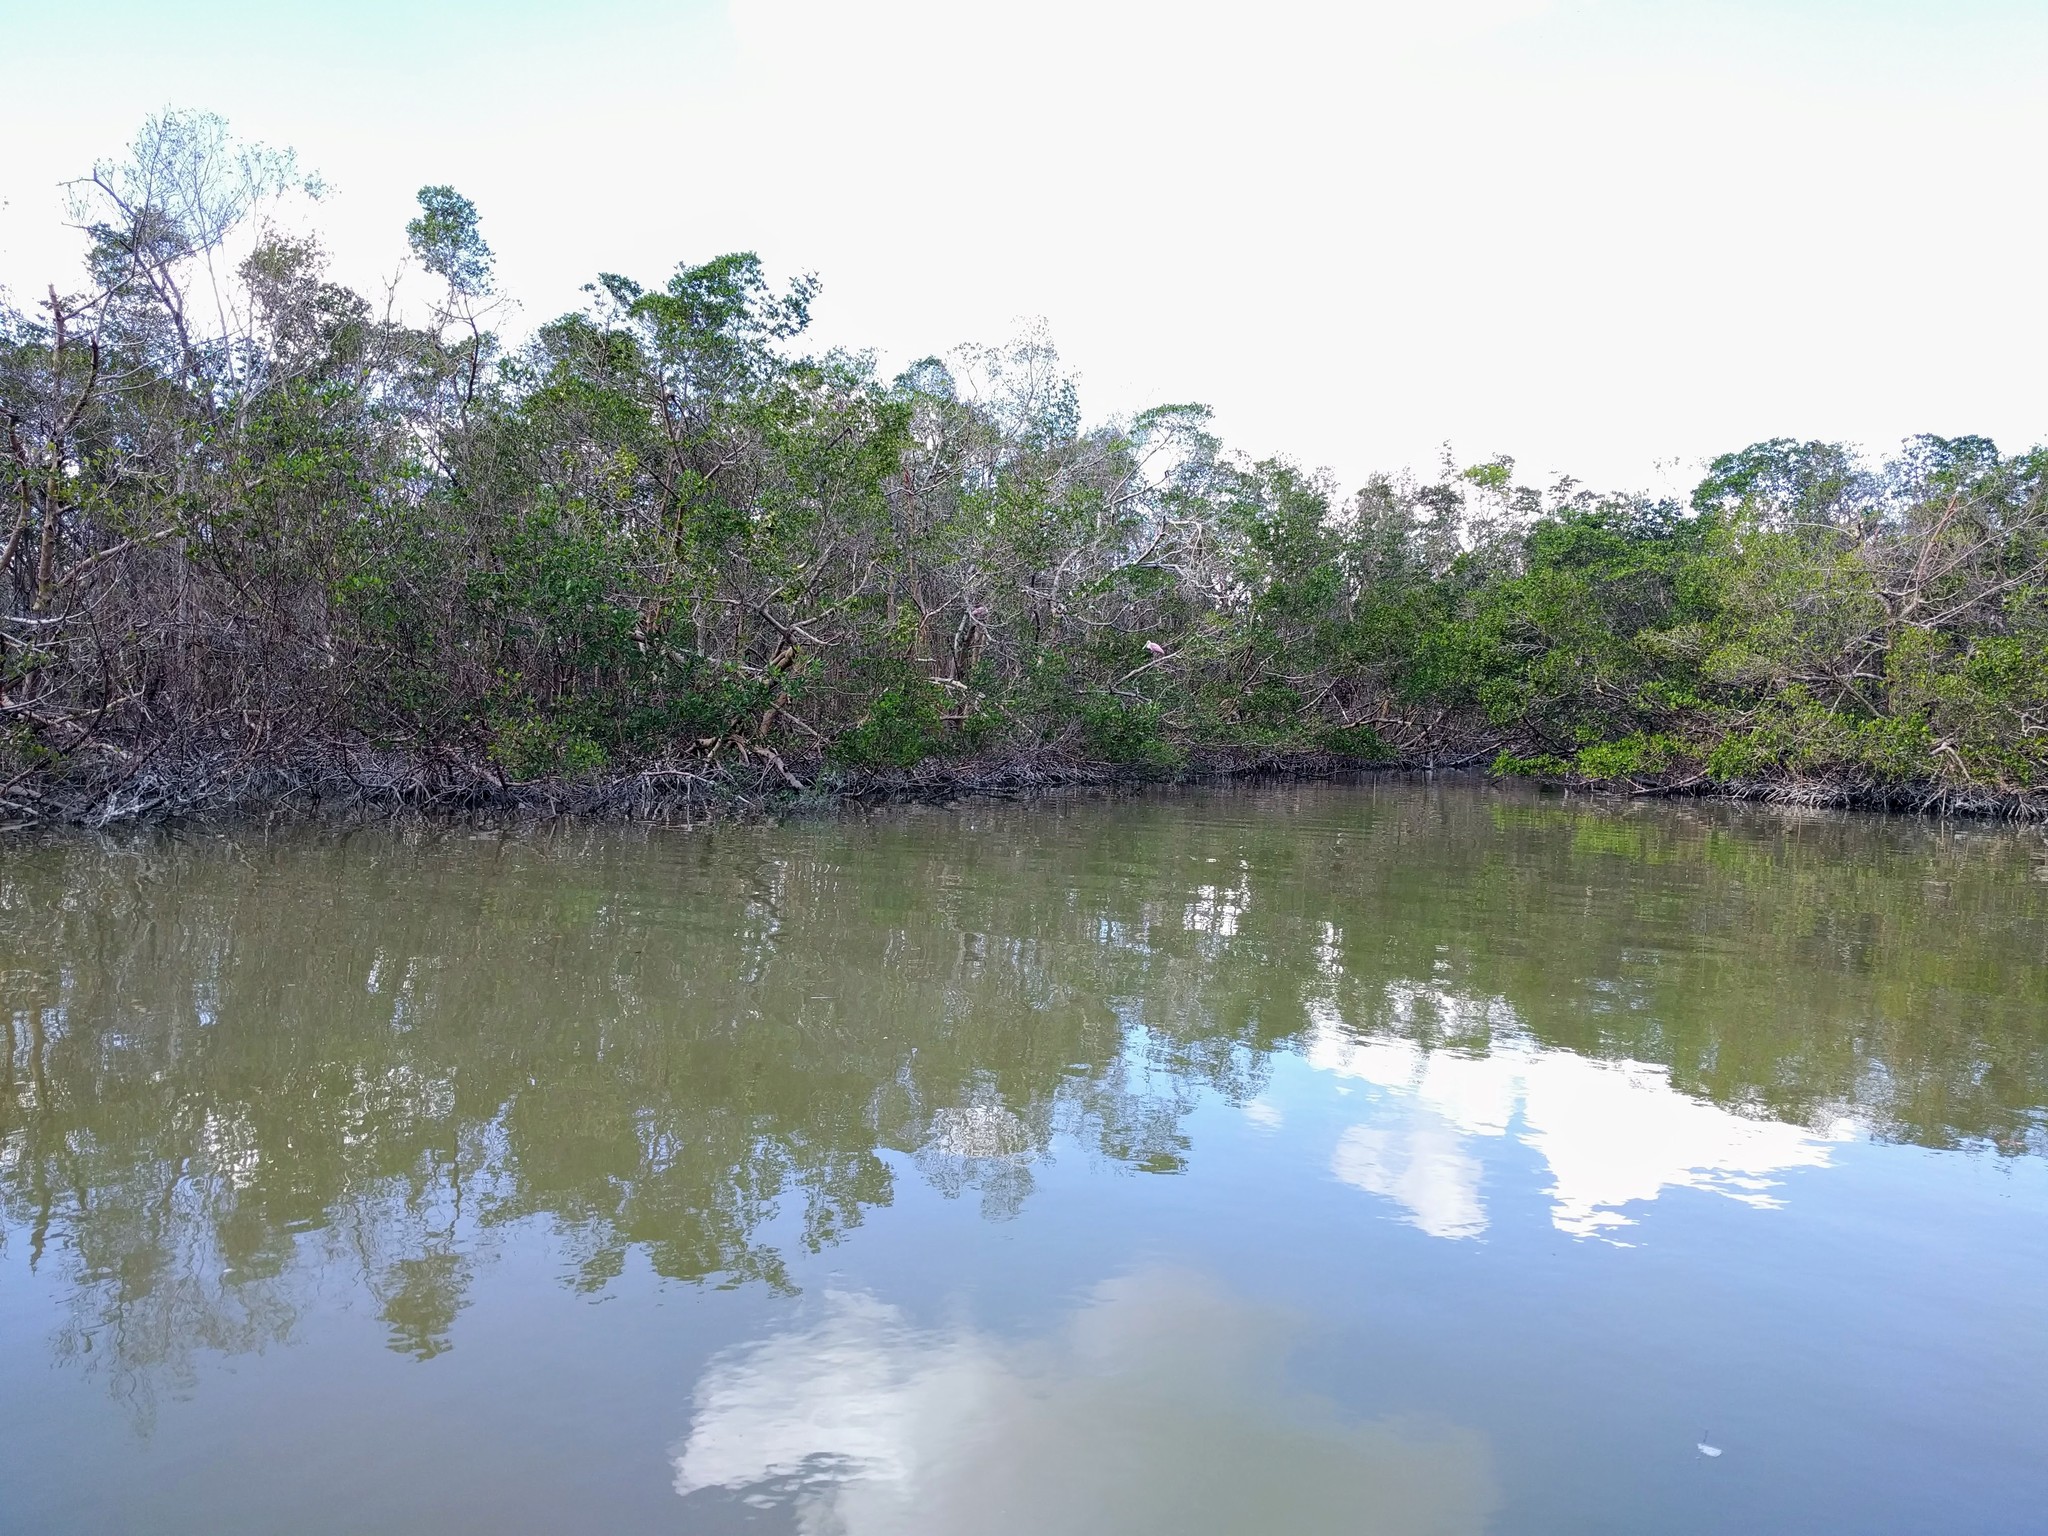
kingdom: Animalia
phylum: Chordata
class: Aves
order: Pelecaniformes
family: Threskiornithidae
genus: Platalea
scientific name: Platalea ajaja
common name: Roseate spoonbill
